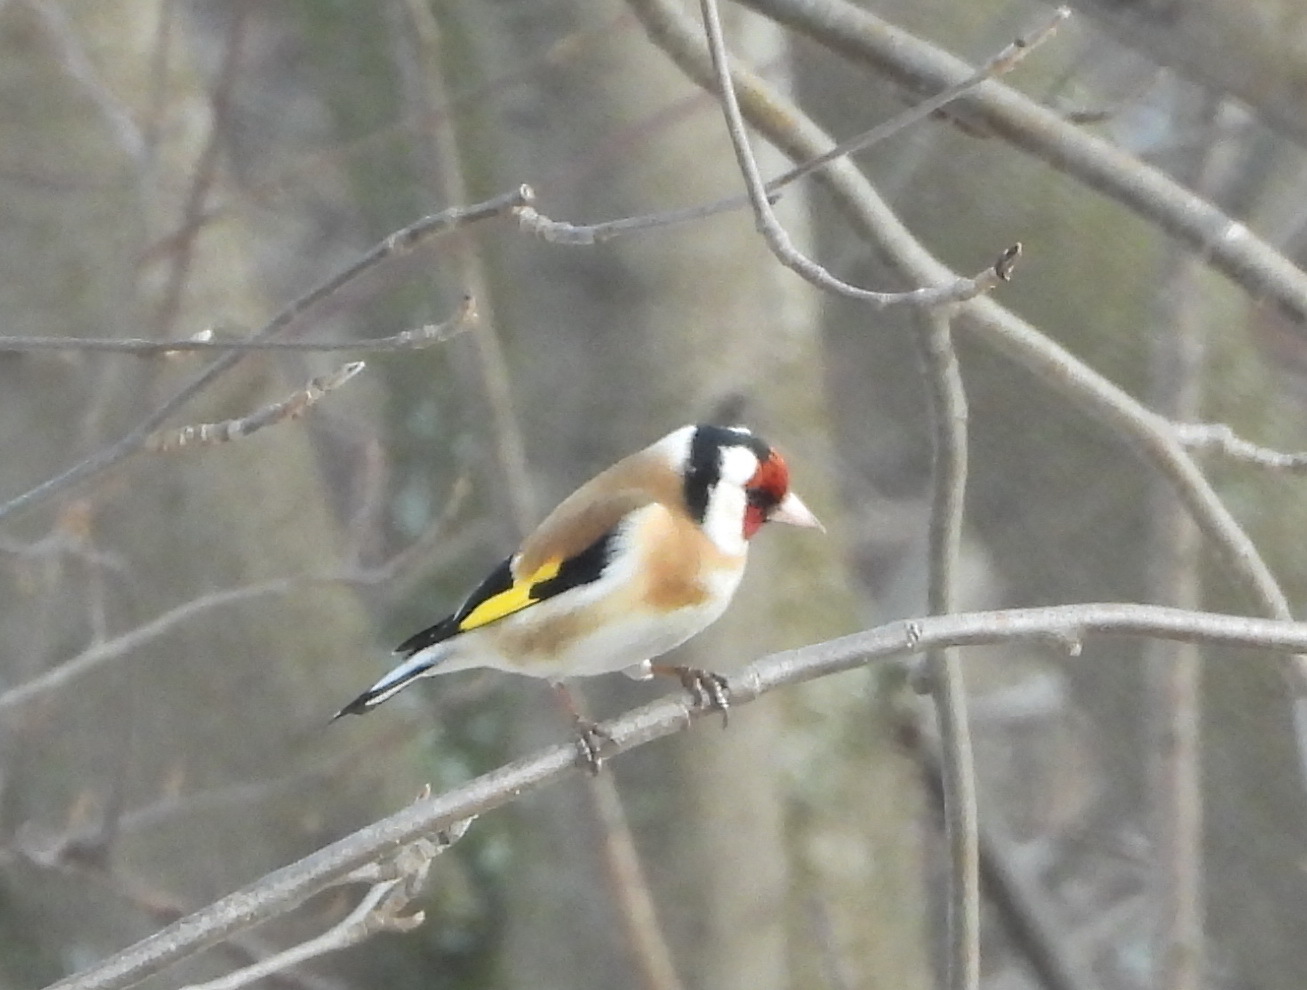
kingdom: Animalia
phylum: Chordata
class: Aves
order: Passeriformes
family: Fringillidae
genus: Carduelis
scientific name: Carduelis carduelis
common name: European goldfinch
